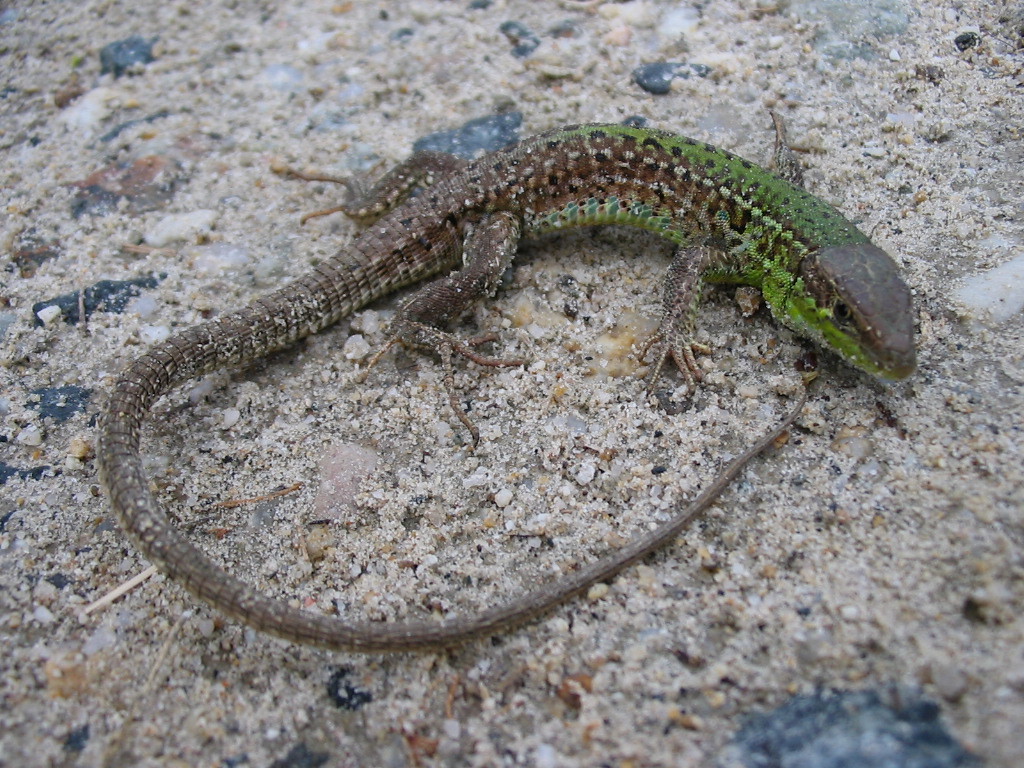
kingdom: Animalia
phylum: Chordata
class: Squamata
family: Lacertidae
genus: Podarcis
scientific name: Podarcis tauricus
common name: Balkan wall lizard
